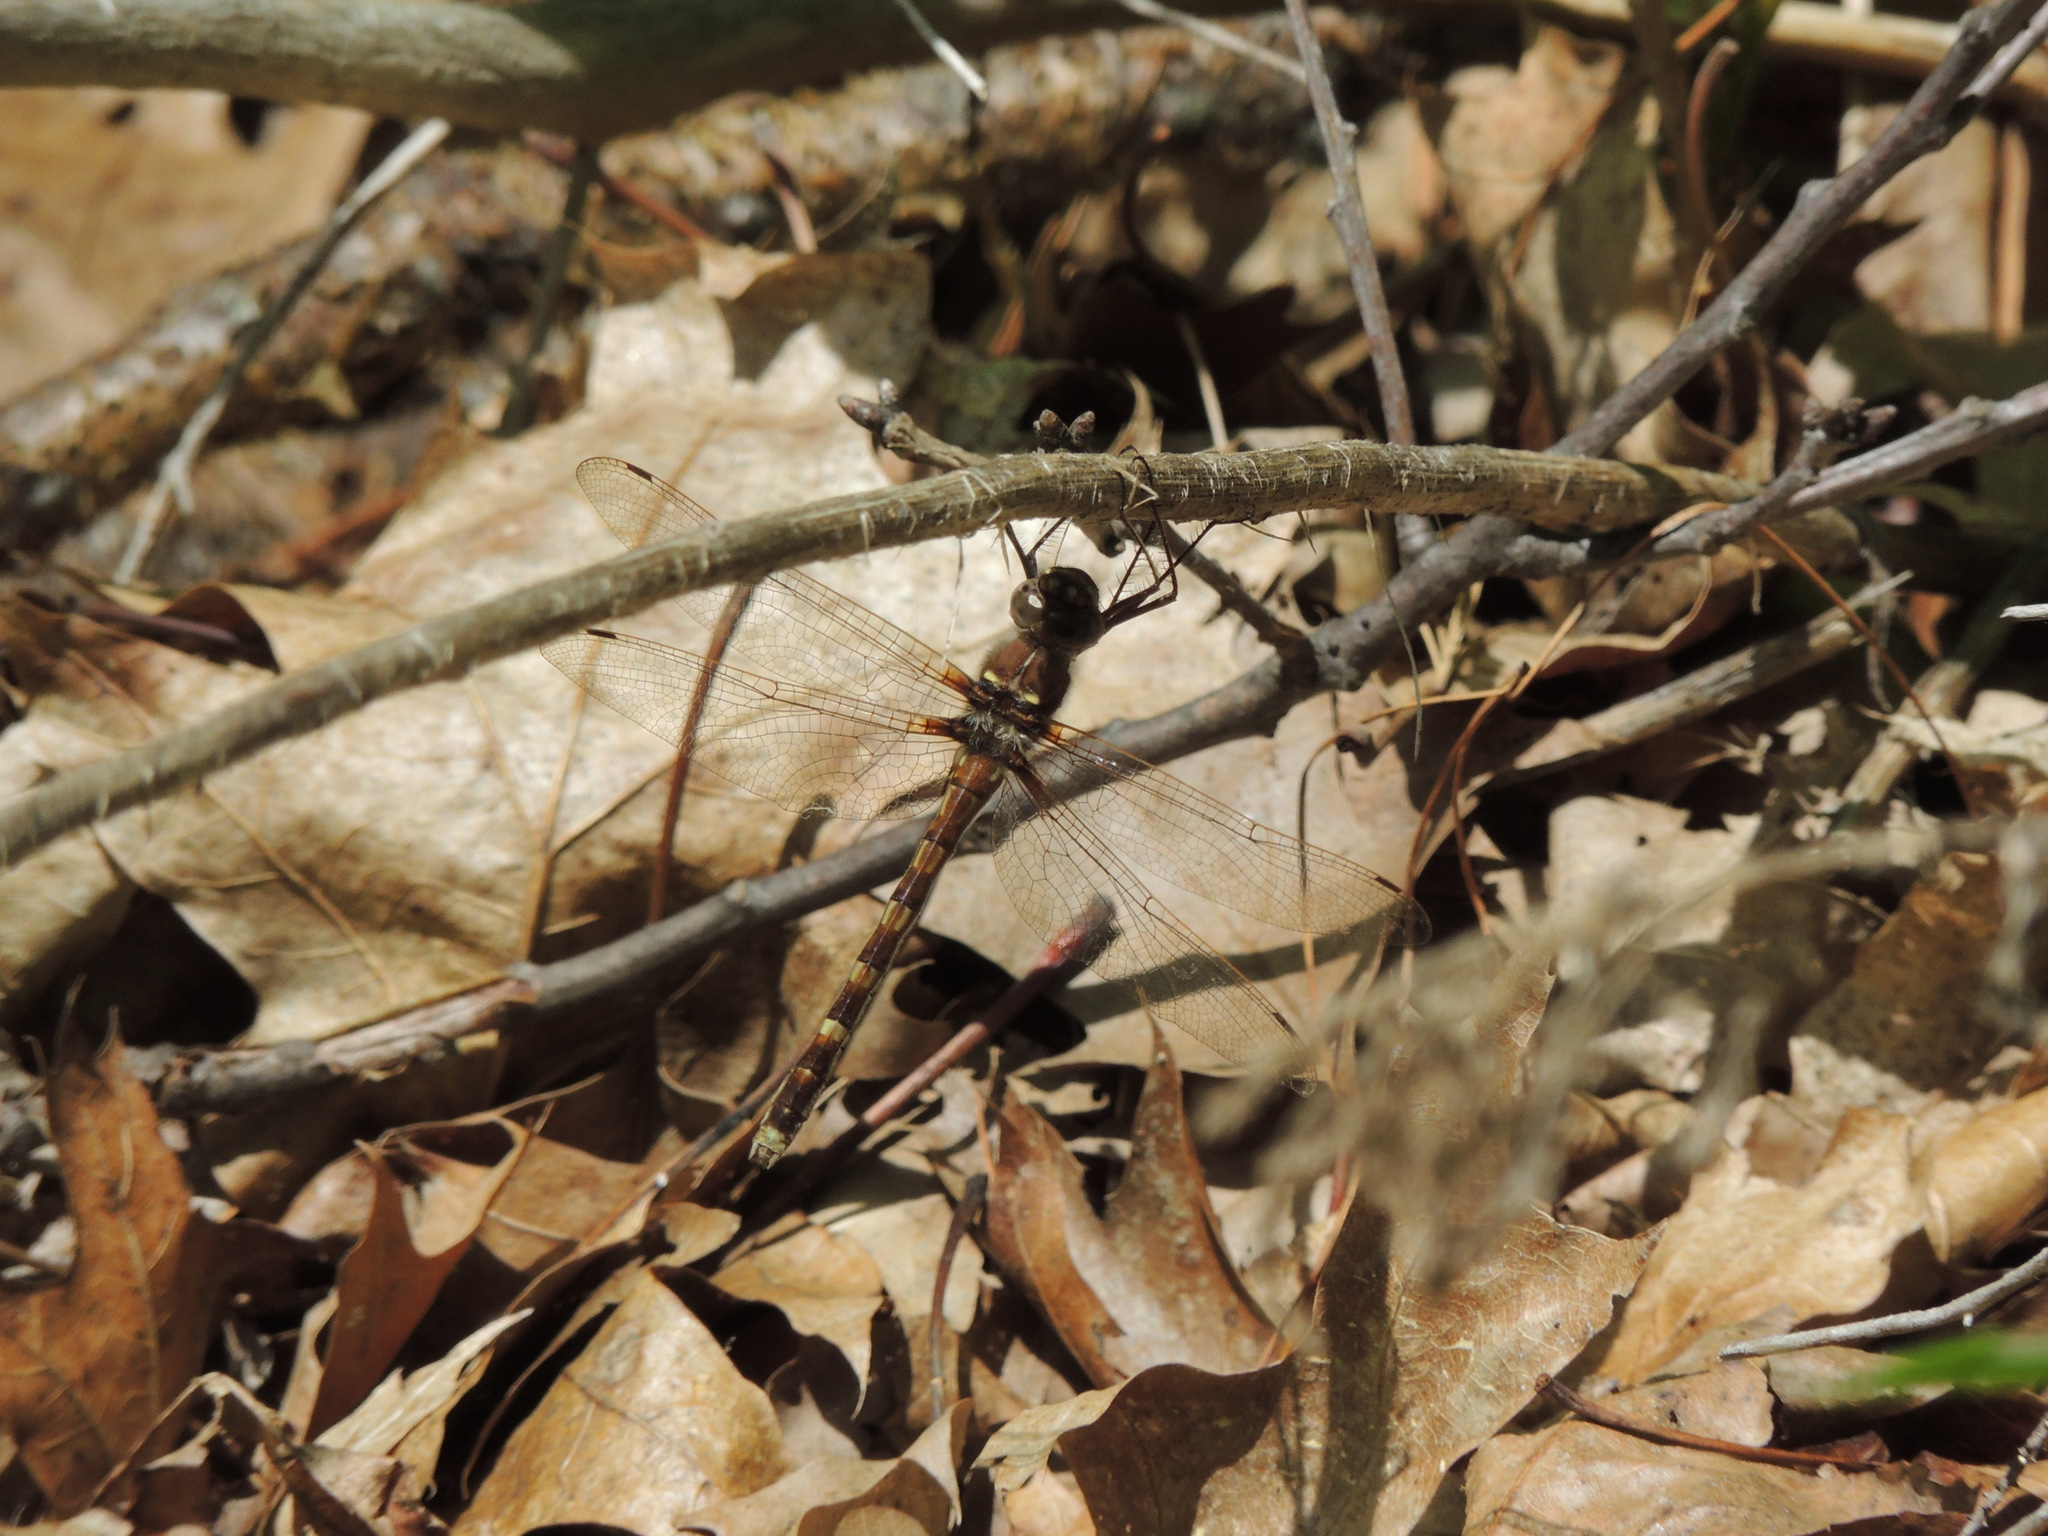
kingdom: Animalia
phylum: Arthropoda
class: Insecta
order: Odonata
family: Macromiidae
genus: Didymops
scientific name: Didymops transversa
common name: Stream cruiser
